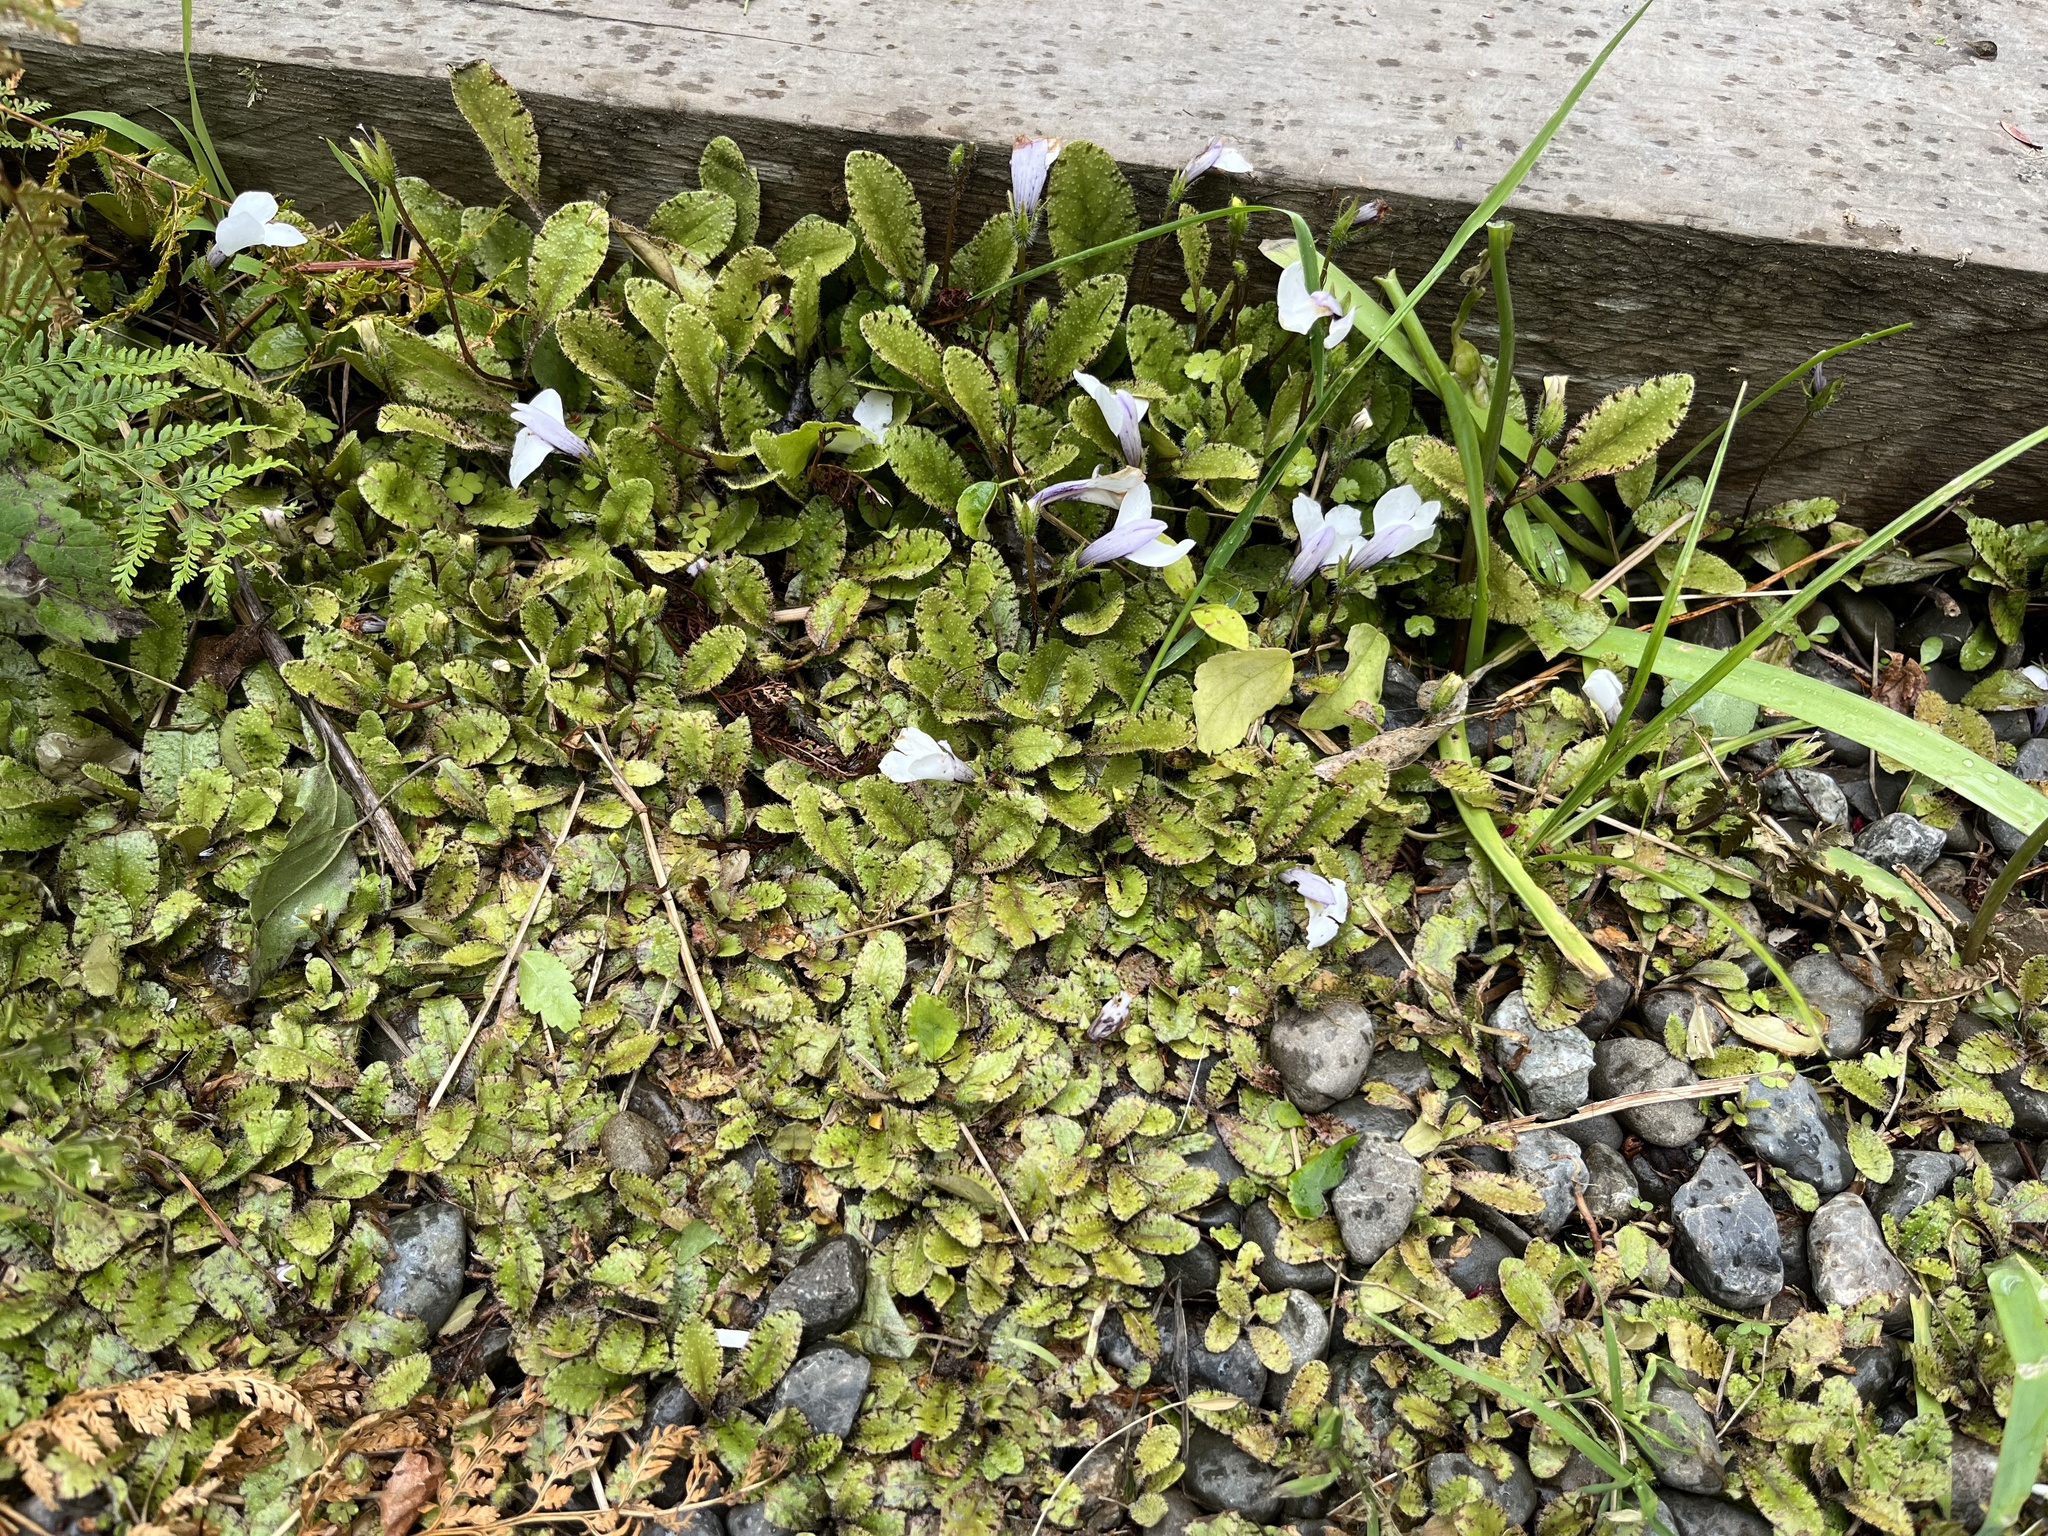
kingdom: Plantae
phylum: Tracheophyta
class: Magnoliopsida
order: Lamiales
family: Mazaceae
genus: Mazus
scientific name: Mazus radicans
